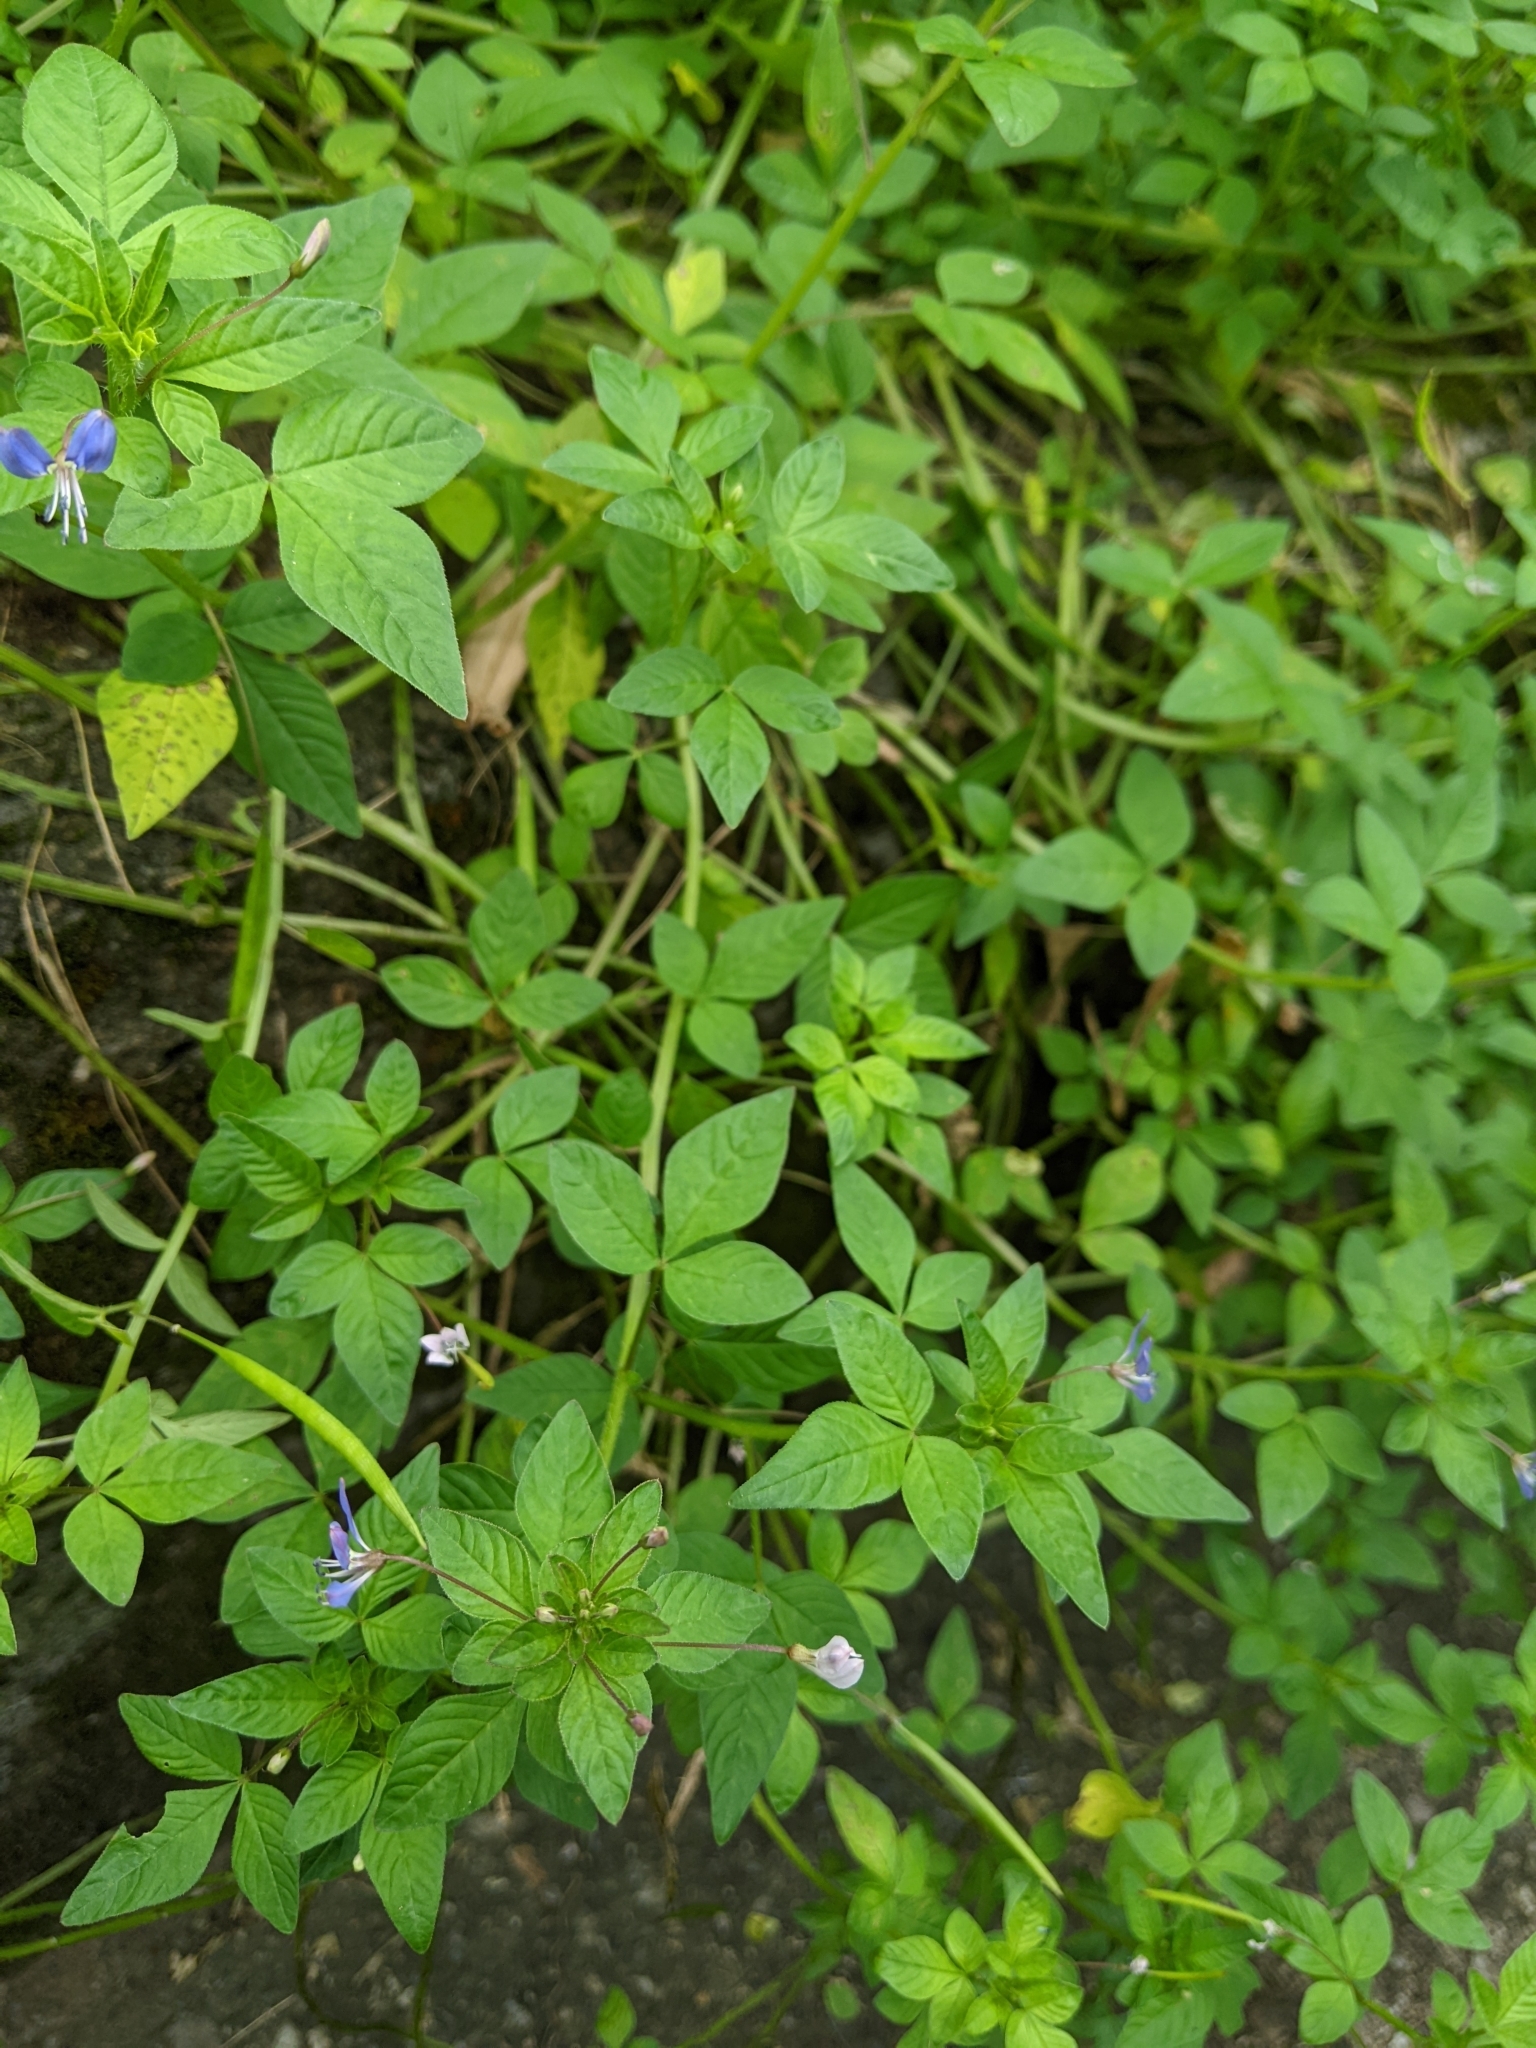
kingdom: Plantae
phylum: Tracheophyta
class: Magnoliopsida
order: Brassicales
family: Cleomaceae
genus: Sieruela
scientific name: Sieruela rutidosperma
